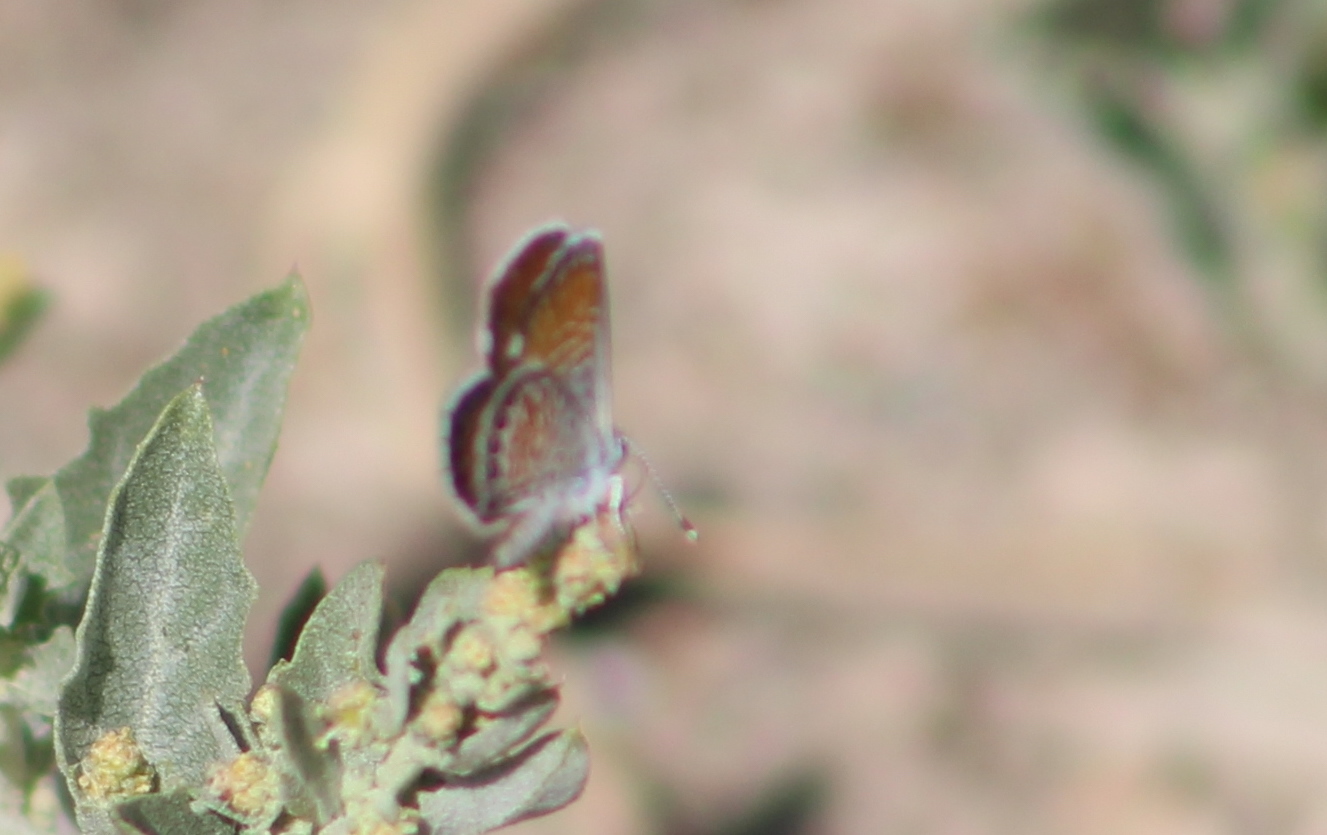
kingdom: Animalia
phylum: Arthropoda
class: Insecta
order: Lepidoptera
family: Lycaenidae
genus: Brephidium
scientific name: Brephidium exilis
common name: Pygmy blue
